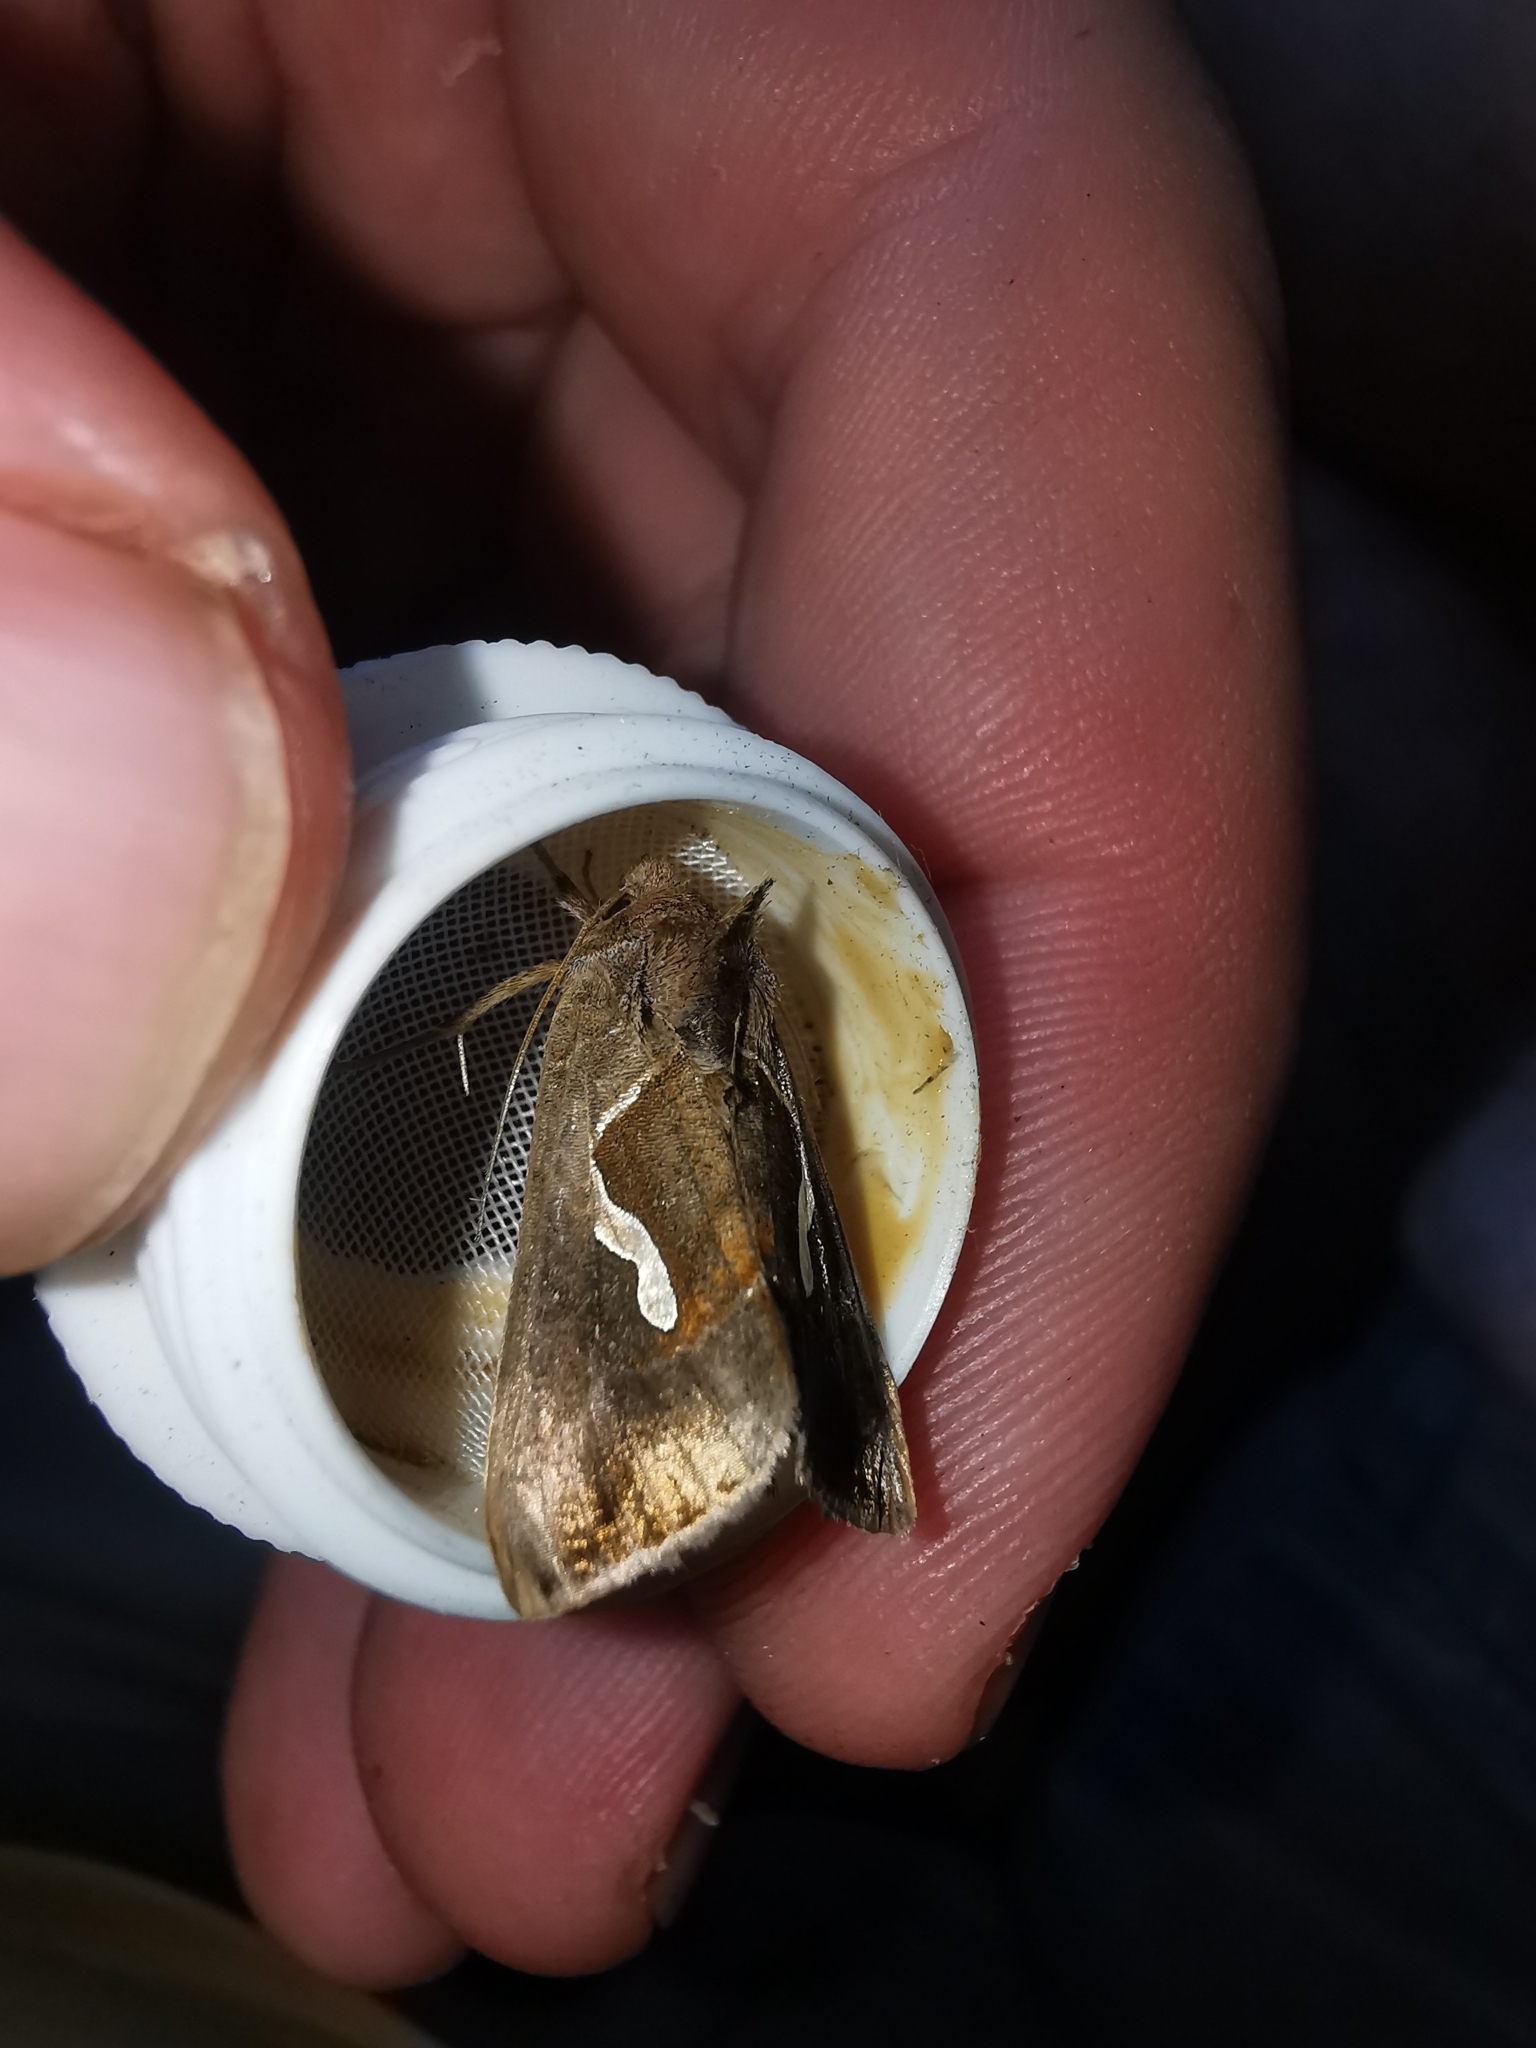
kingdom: Animalia
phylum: Arthropoda
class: Insecta
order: Lepidoptera
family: Noctuidae
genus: Macdunnoughia
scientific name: Macdunnoughia confusa
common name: Dewick's plusia
